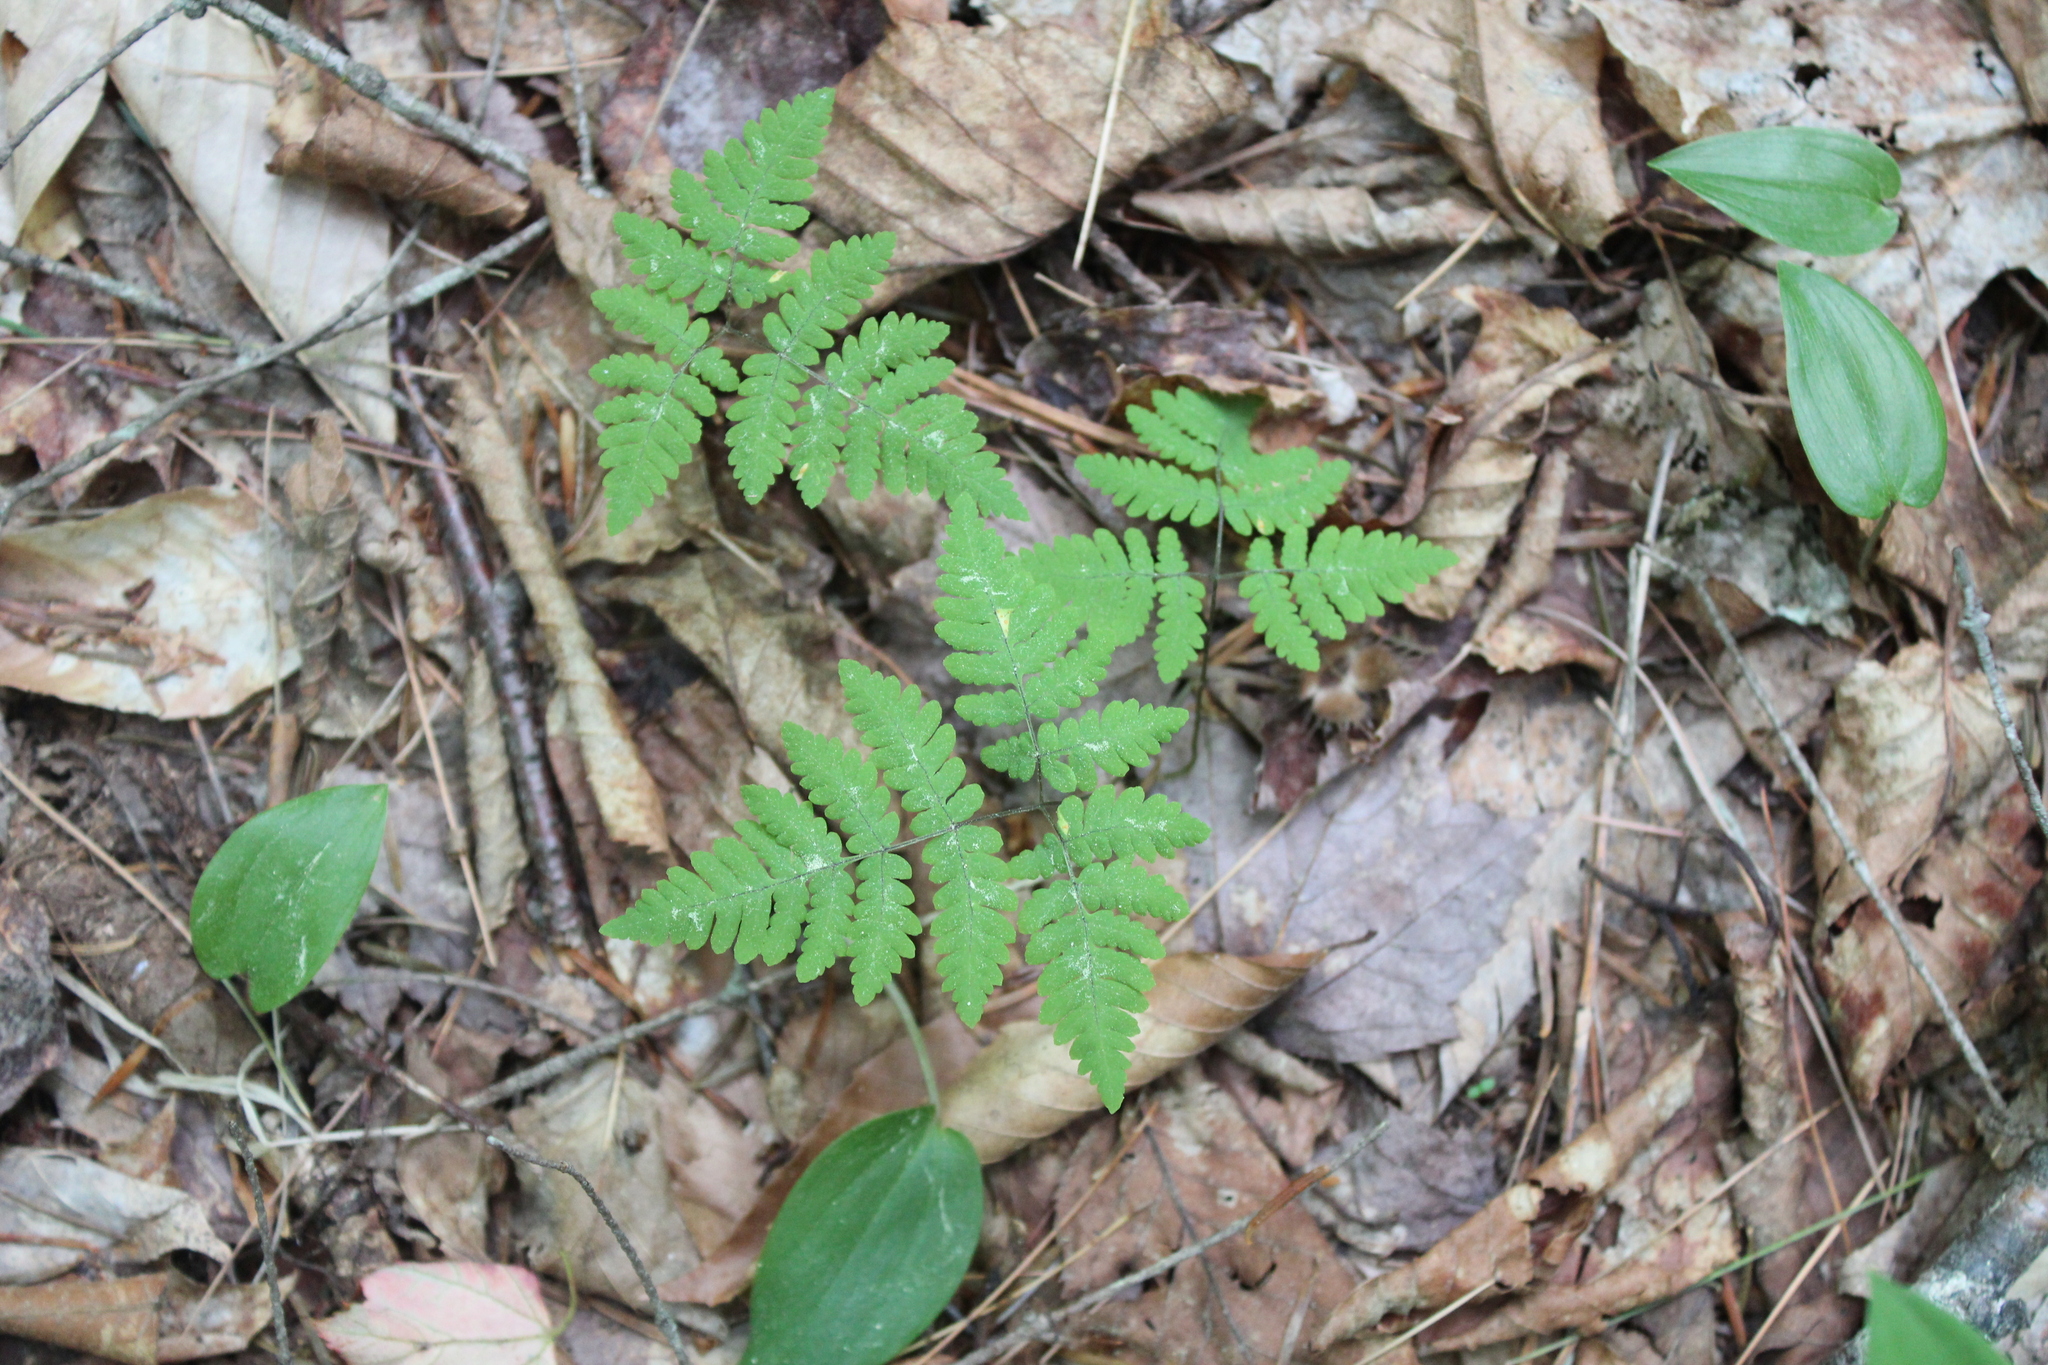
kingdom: Plantae
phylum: Tracheophyta
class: Polypodiopsida
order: Polypodiales
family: Cystopteridaceae
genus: Gymnocarpium
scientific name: Gymnocarpium dryopteris
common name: Oak fern
